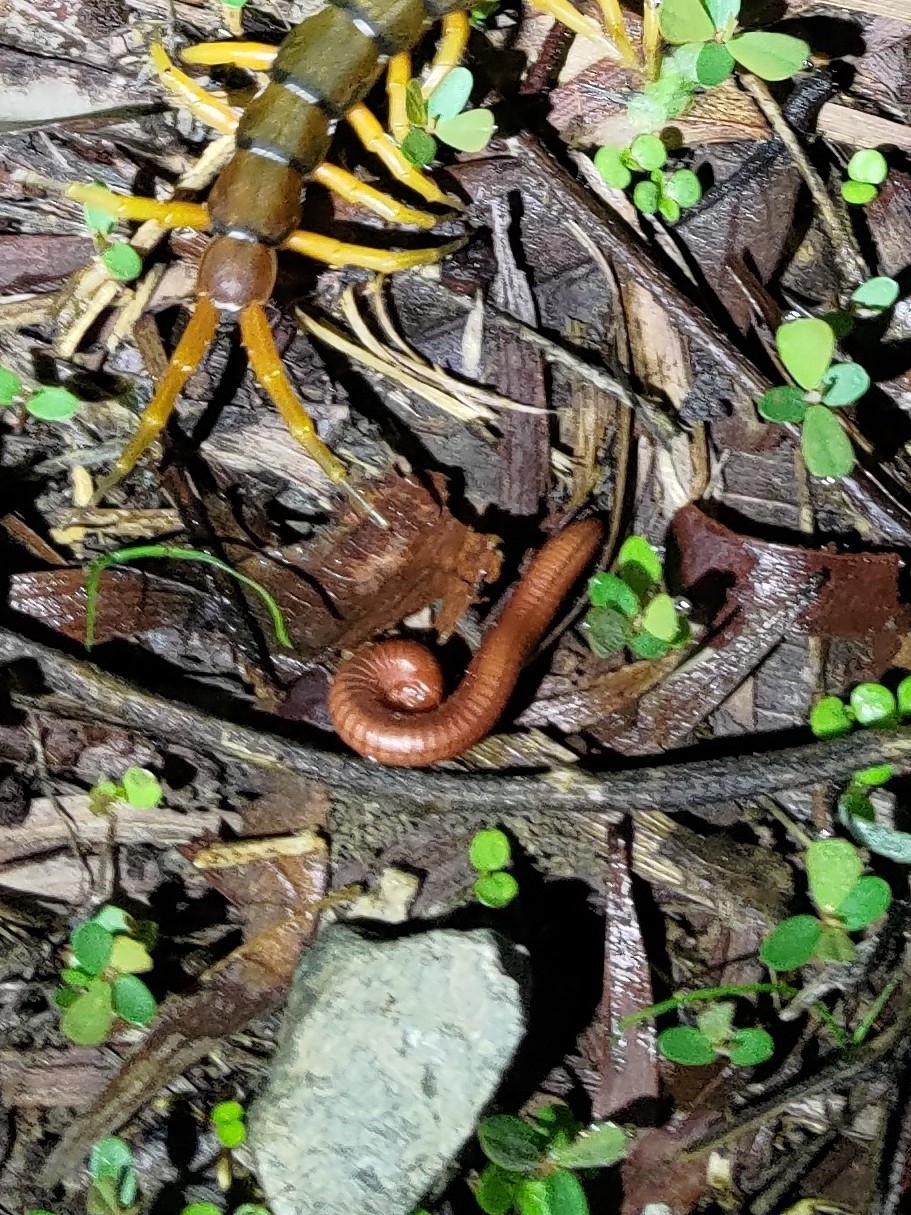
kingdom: Animalia
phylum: Arthropoda
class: Diplopoda
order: Spirobolida
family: Pachybolidae
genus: Trigoniulus
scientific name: Trigoniulus corallinus
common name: Millipede
